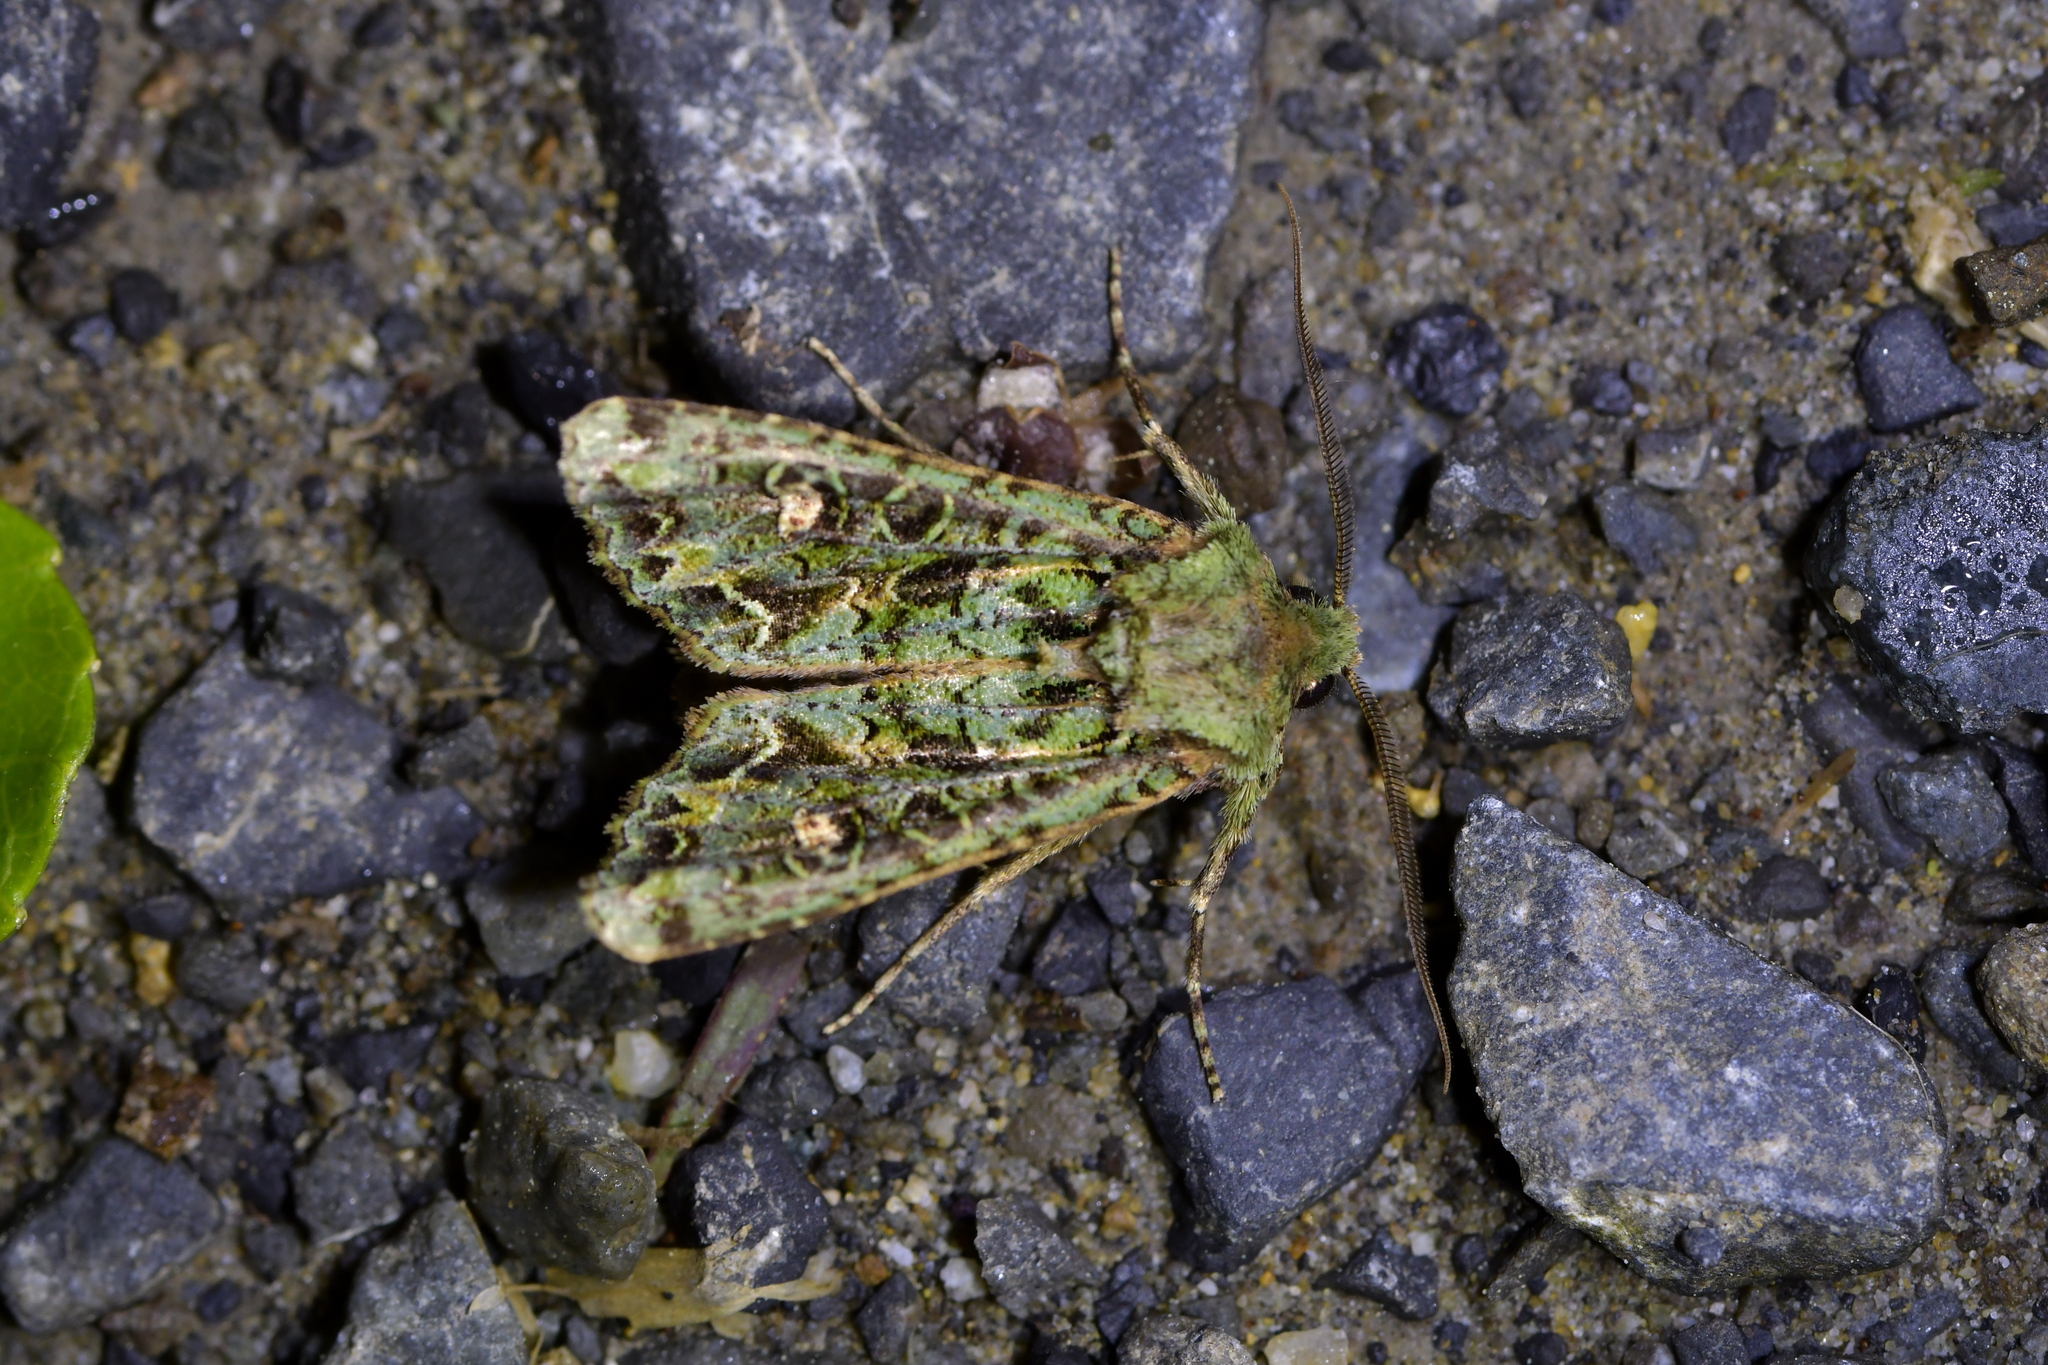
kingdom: Animalia
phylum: Arthropoda
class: Insecta
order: Lepidoptera
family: Noctuidae
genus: Ichneutica
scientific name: Ichneutica
